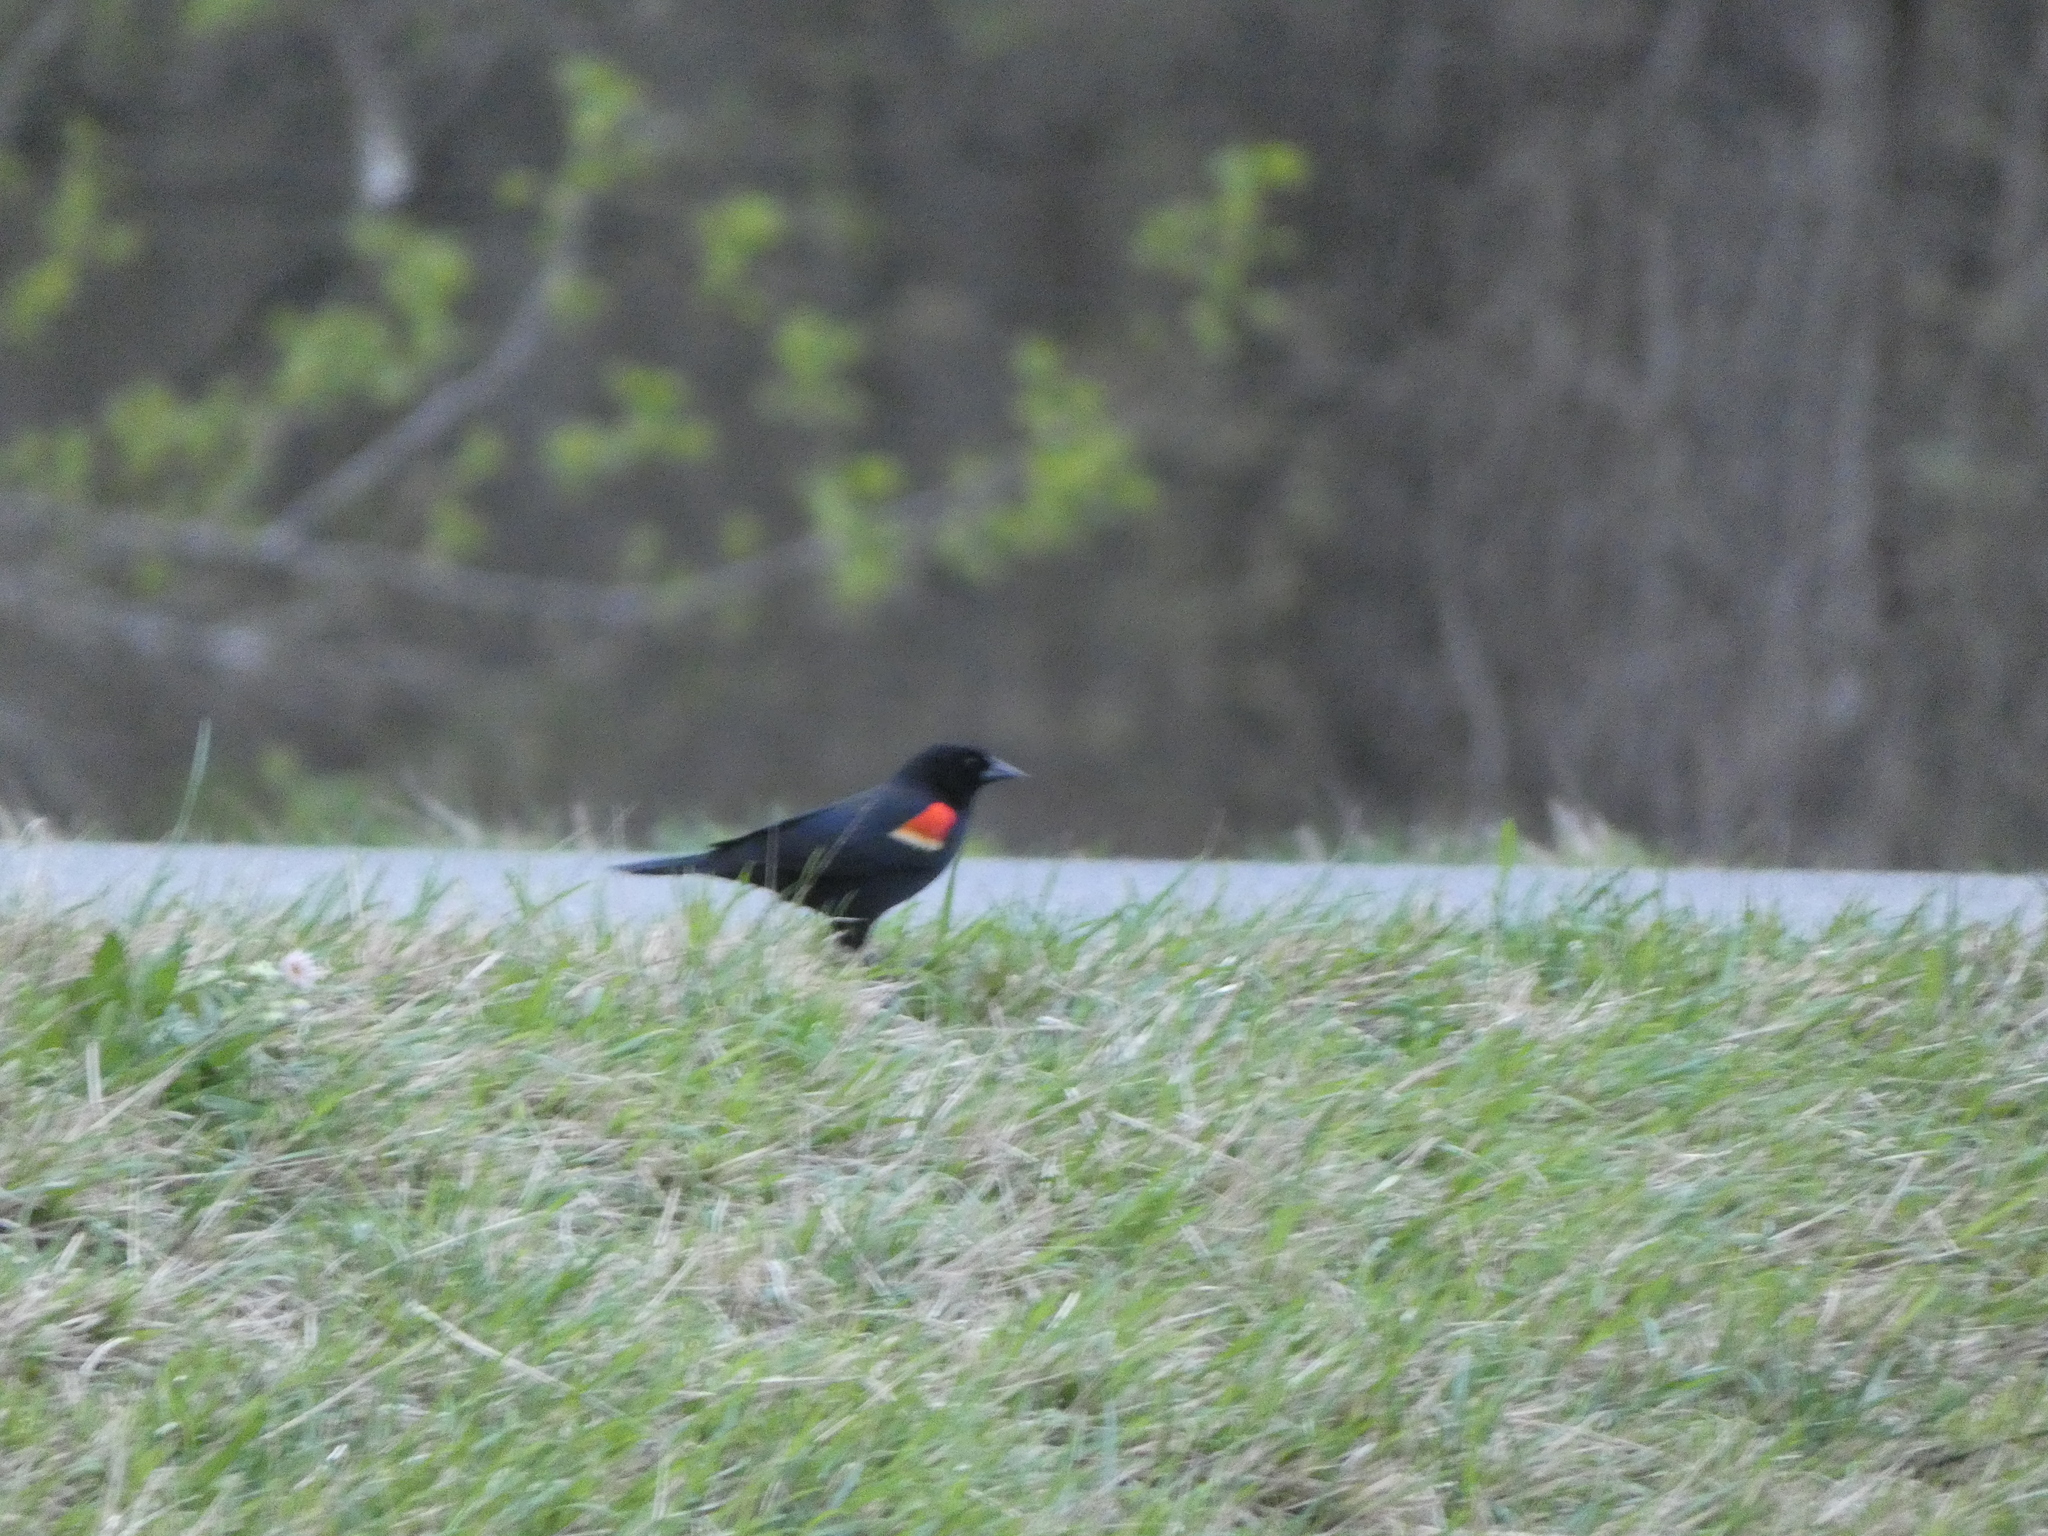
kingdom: Animalia
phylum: Chordata
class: Aves
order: Passeriformes
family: Icteridae
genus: Agelaius
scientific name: Agelaius phoeniceus
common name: Red-winged blackbird
